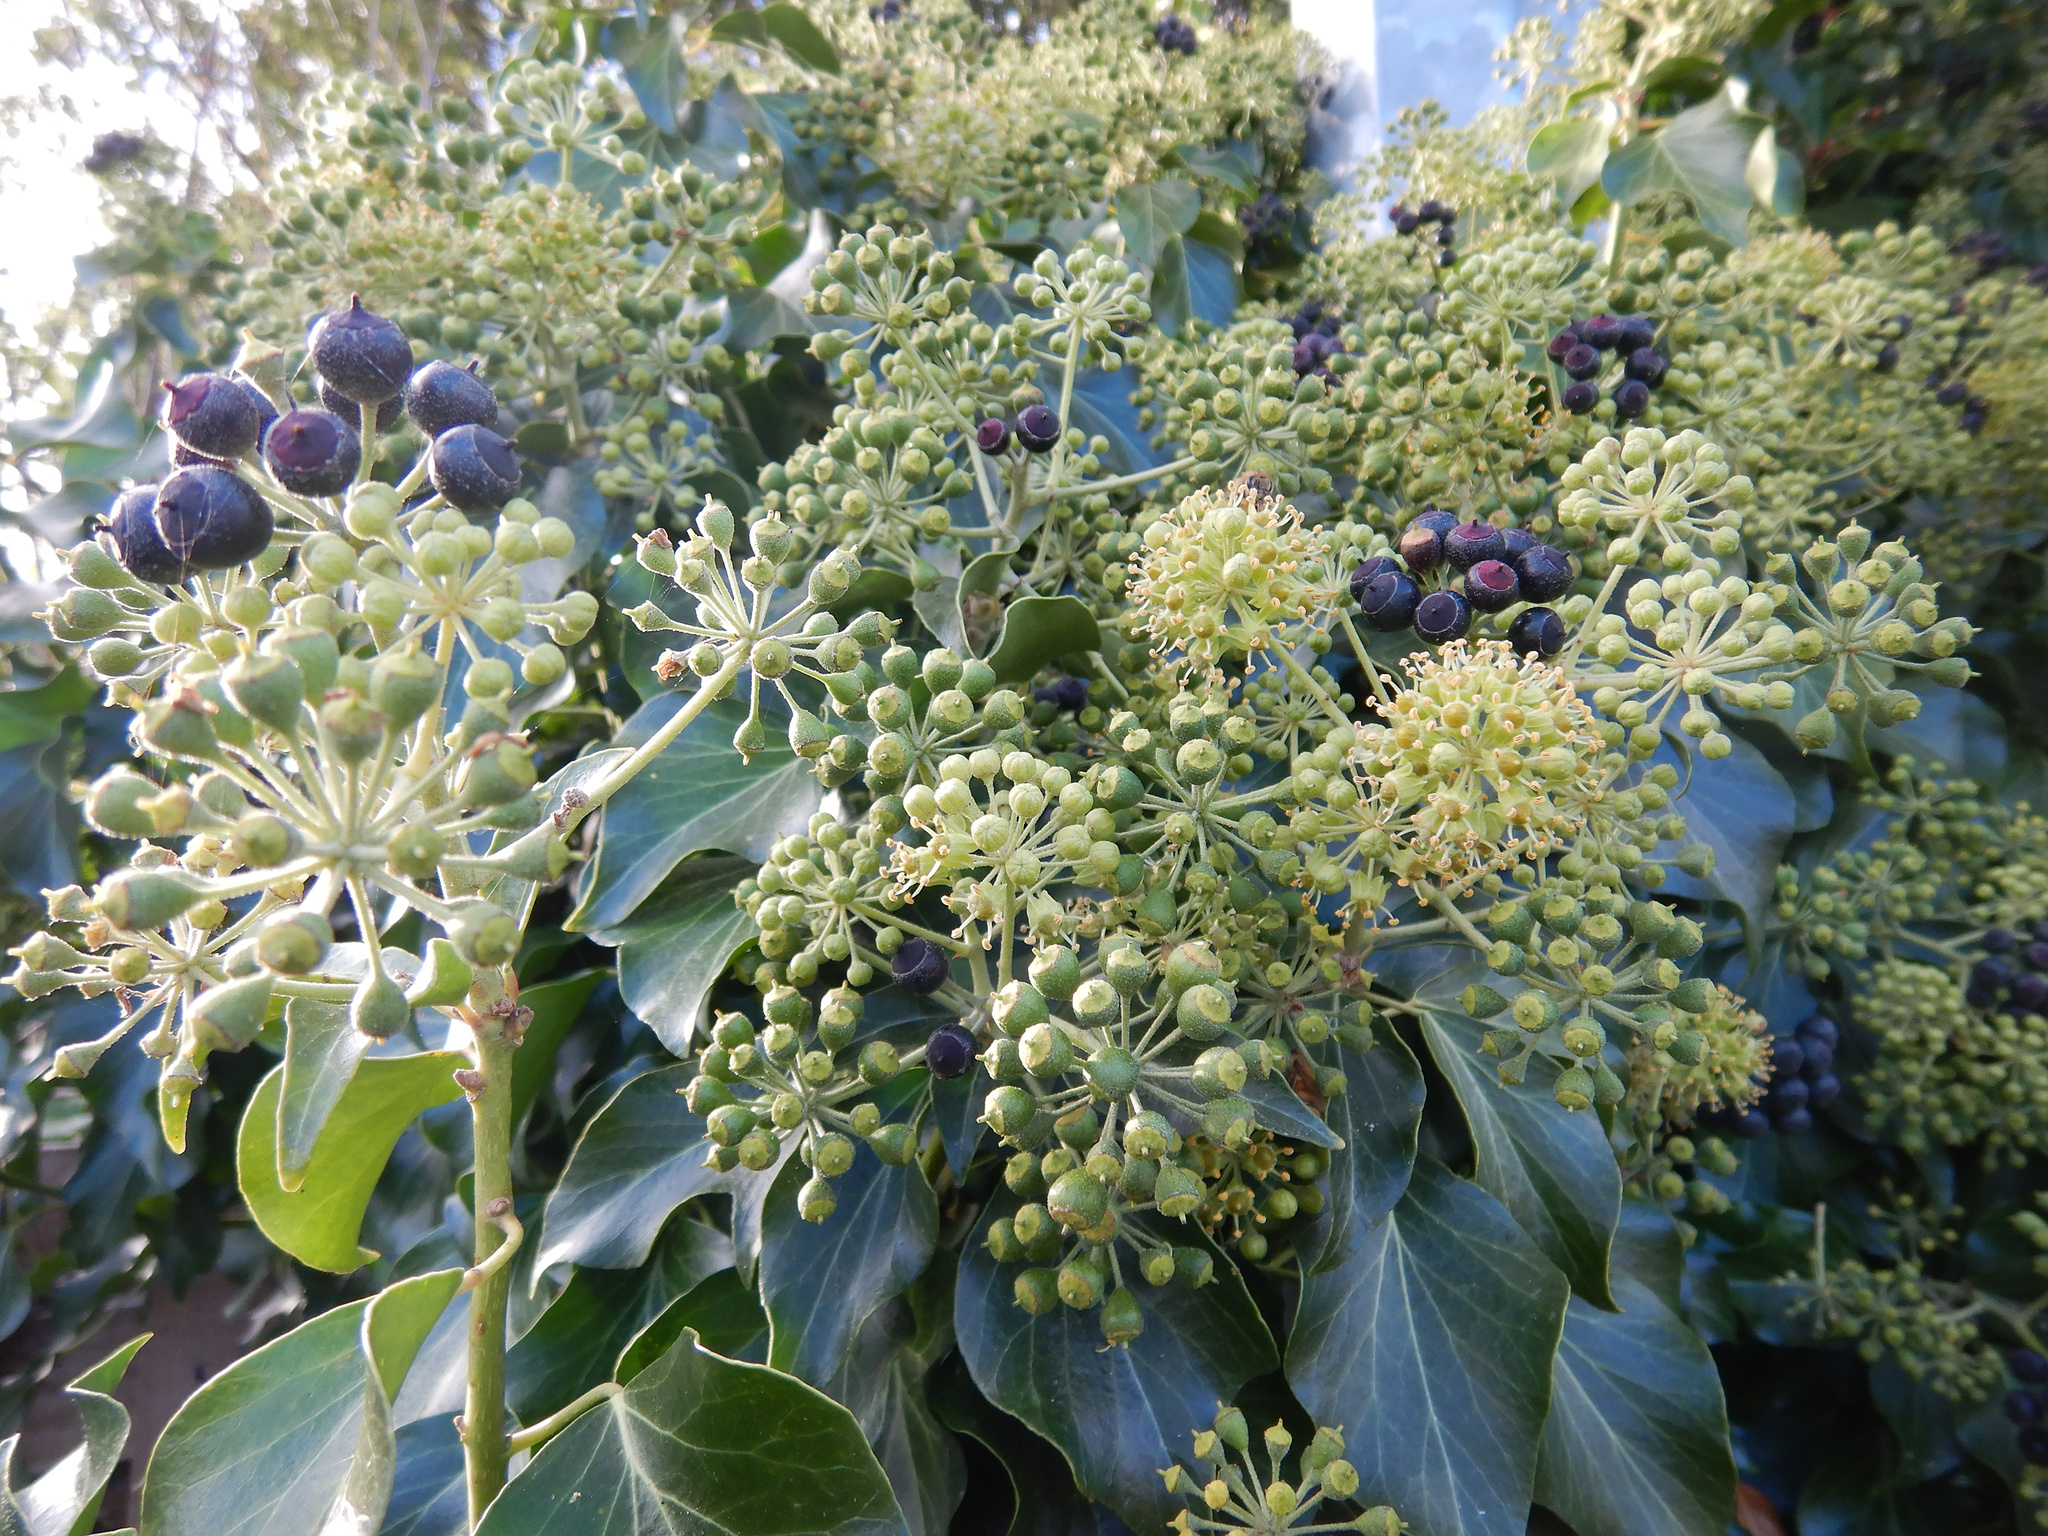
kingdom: Plantae
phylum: Tracheophyta
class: Magnoliopsida
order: Apiales
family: Araliaceae
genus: Hedera
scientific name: Hedera helix
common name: Ivy
